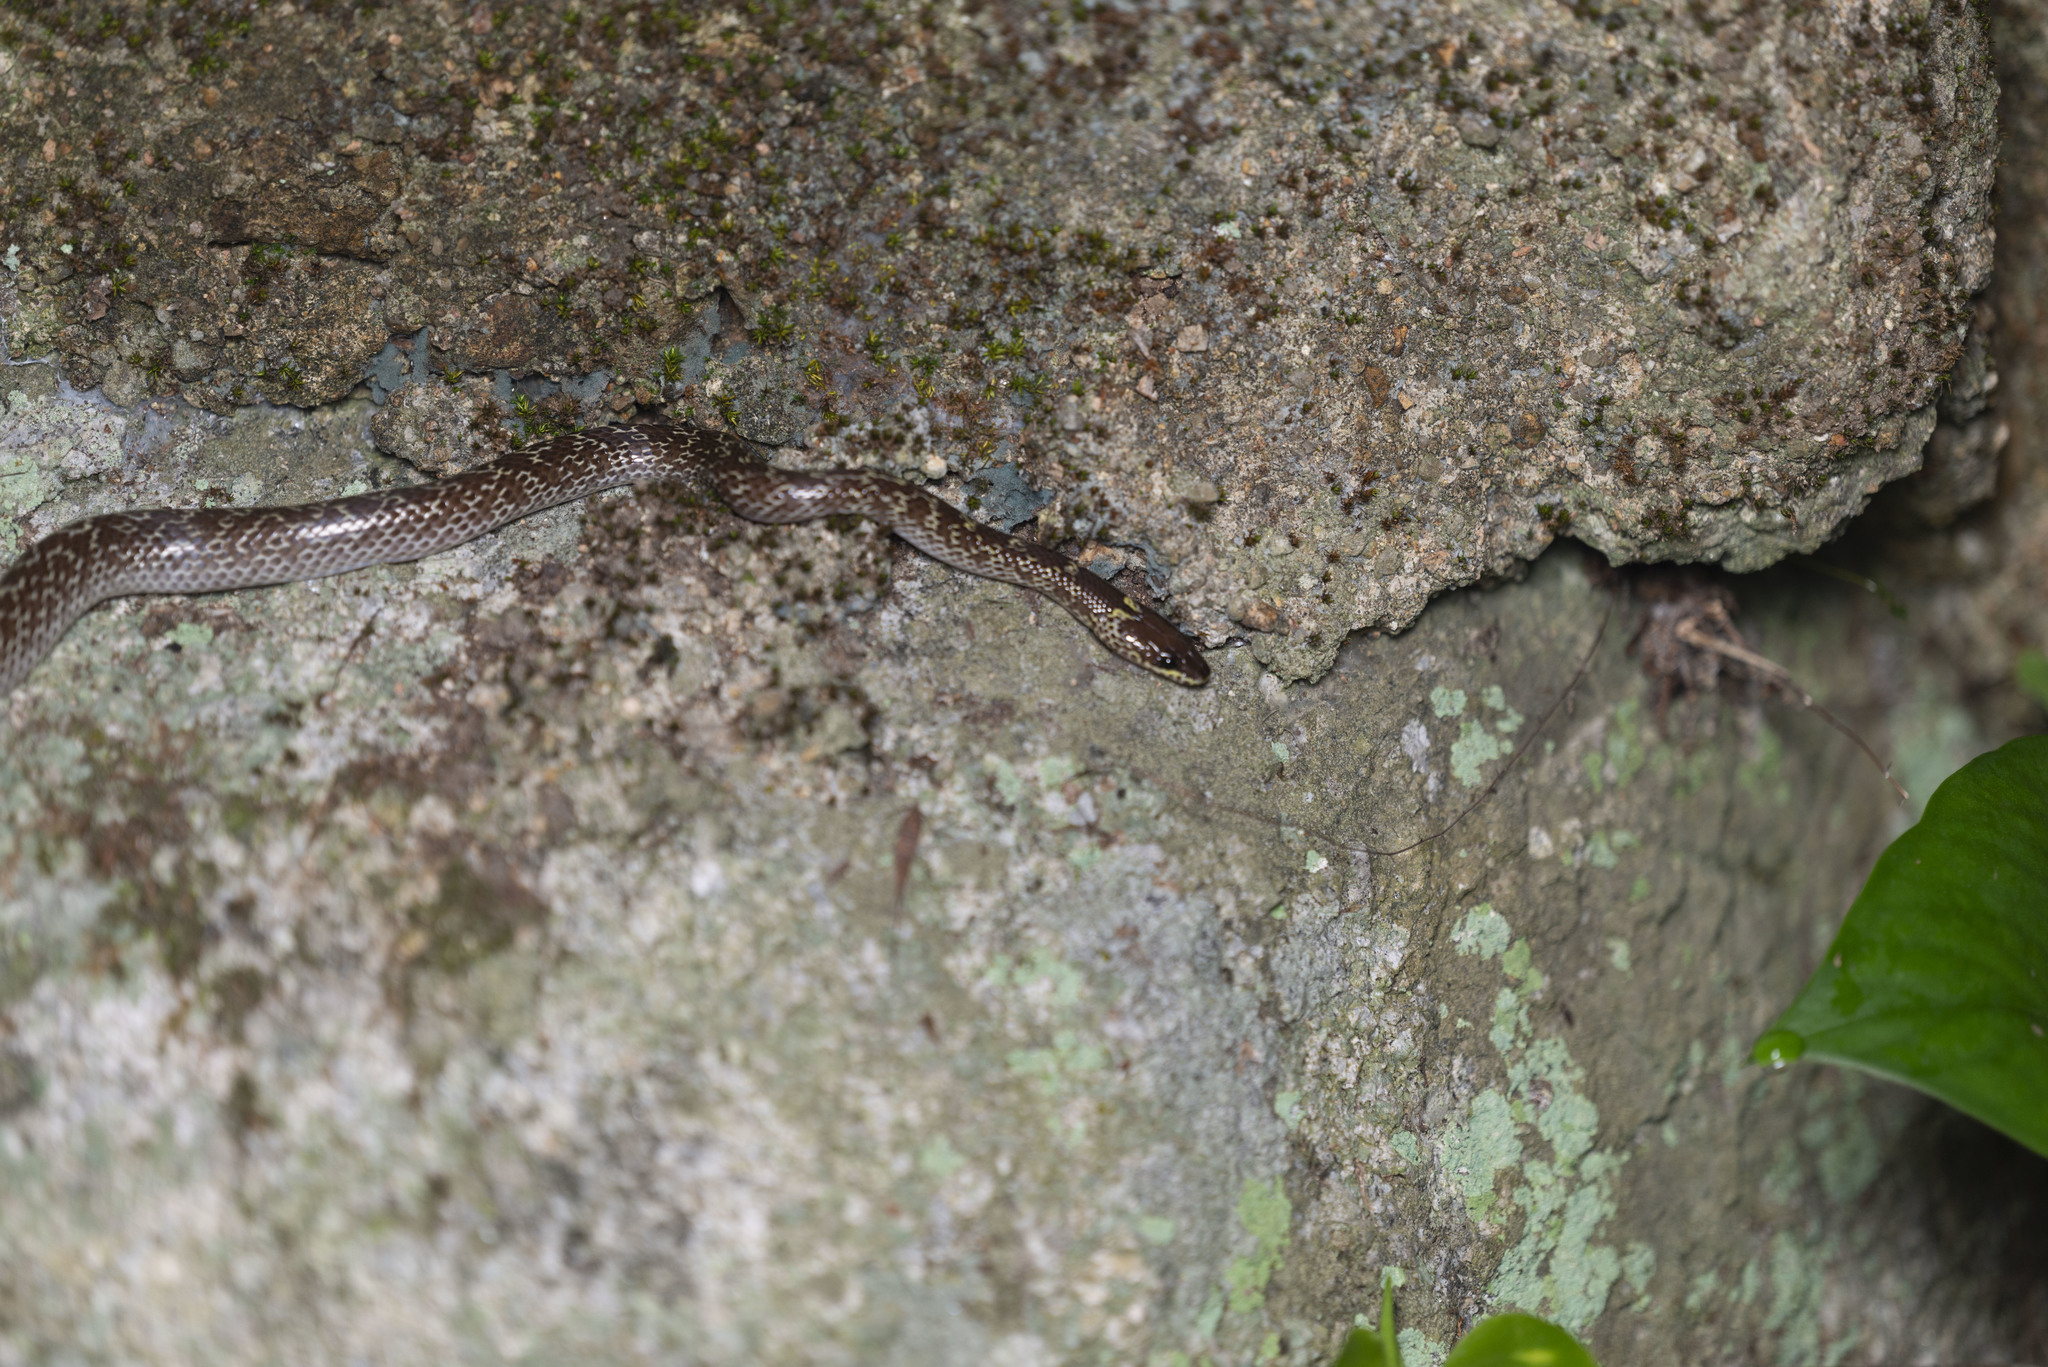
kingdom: Animalia
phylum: Chordata
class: Squamata
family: Colubridae
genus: Lycodon
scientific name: Lycodon capucinus
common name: Common wold snake/house snake
